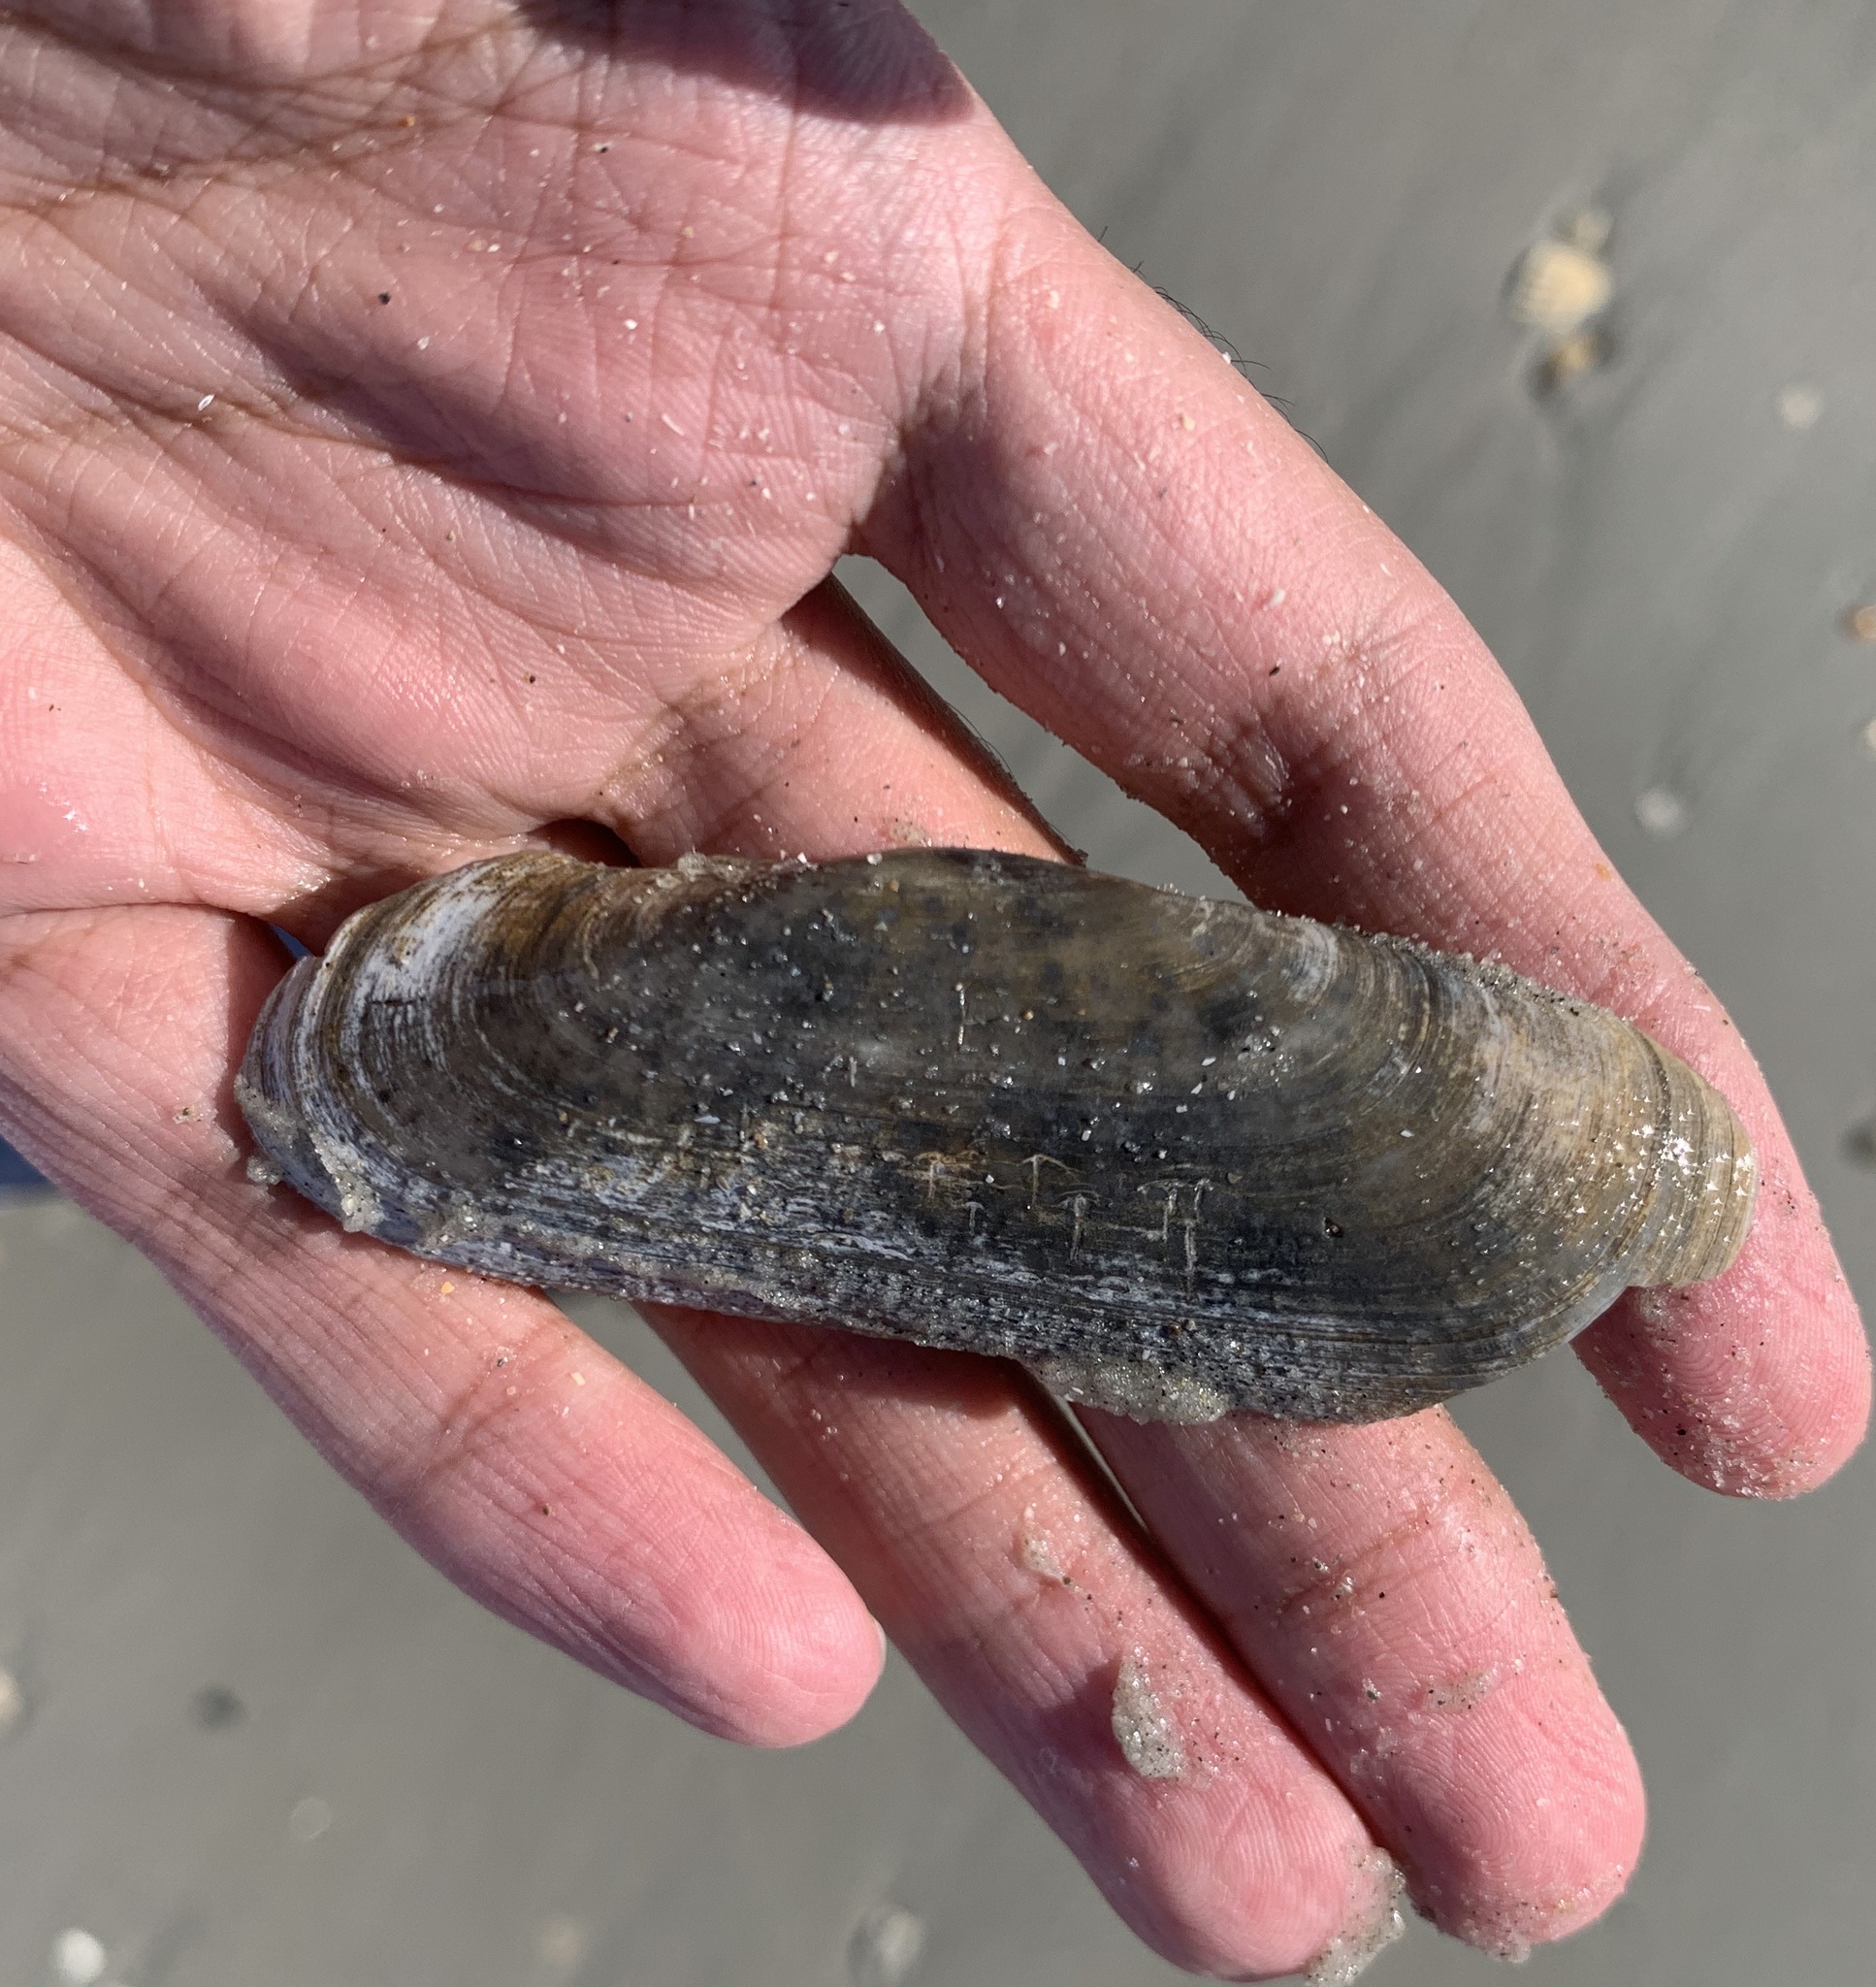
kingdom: Animalia
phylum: Mollusca
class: Bivalvia
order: Cardiida
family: Solecurtidae
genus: Tagelus
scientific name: Tagelus plebeius
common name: Stout tagelus
